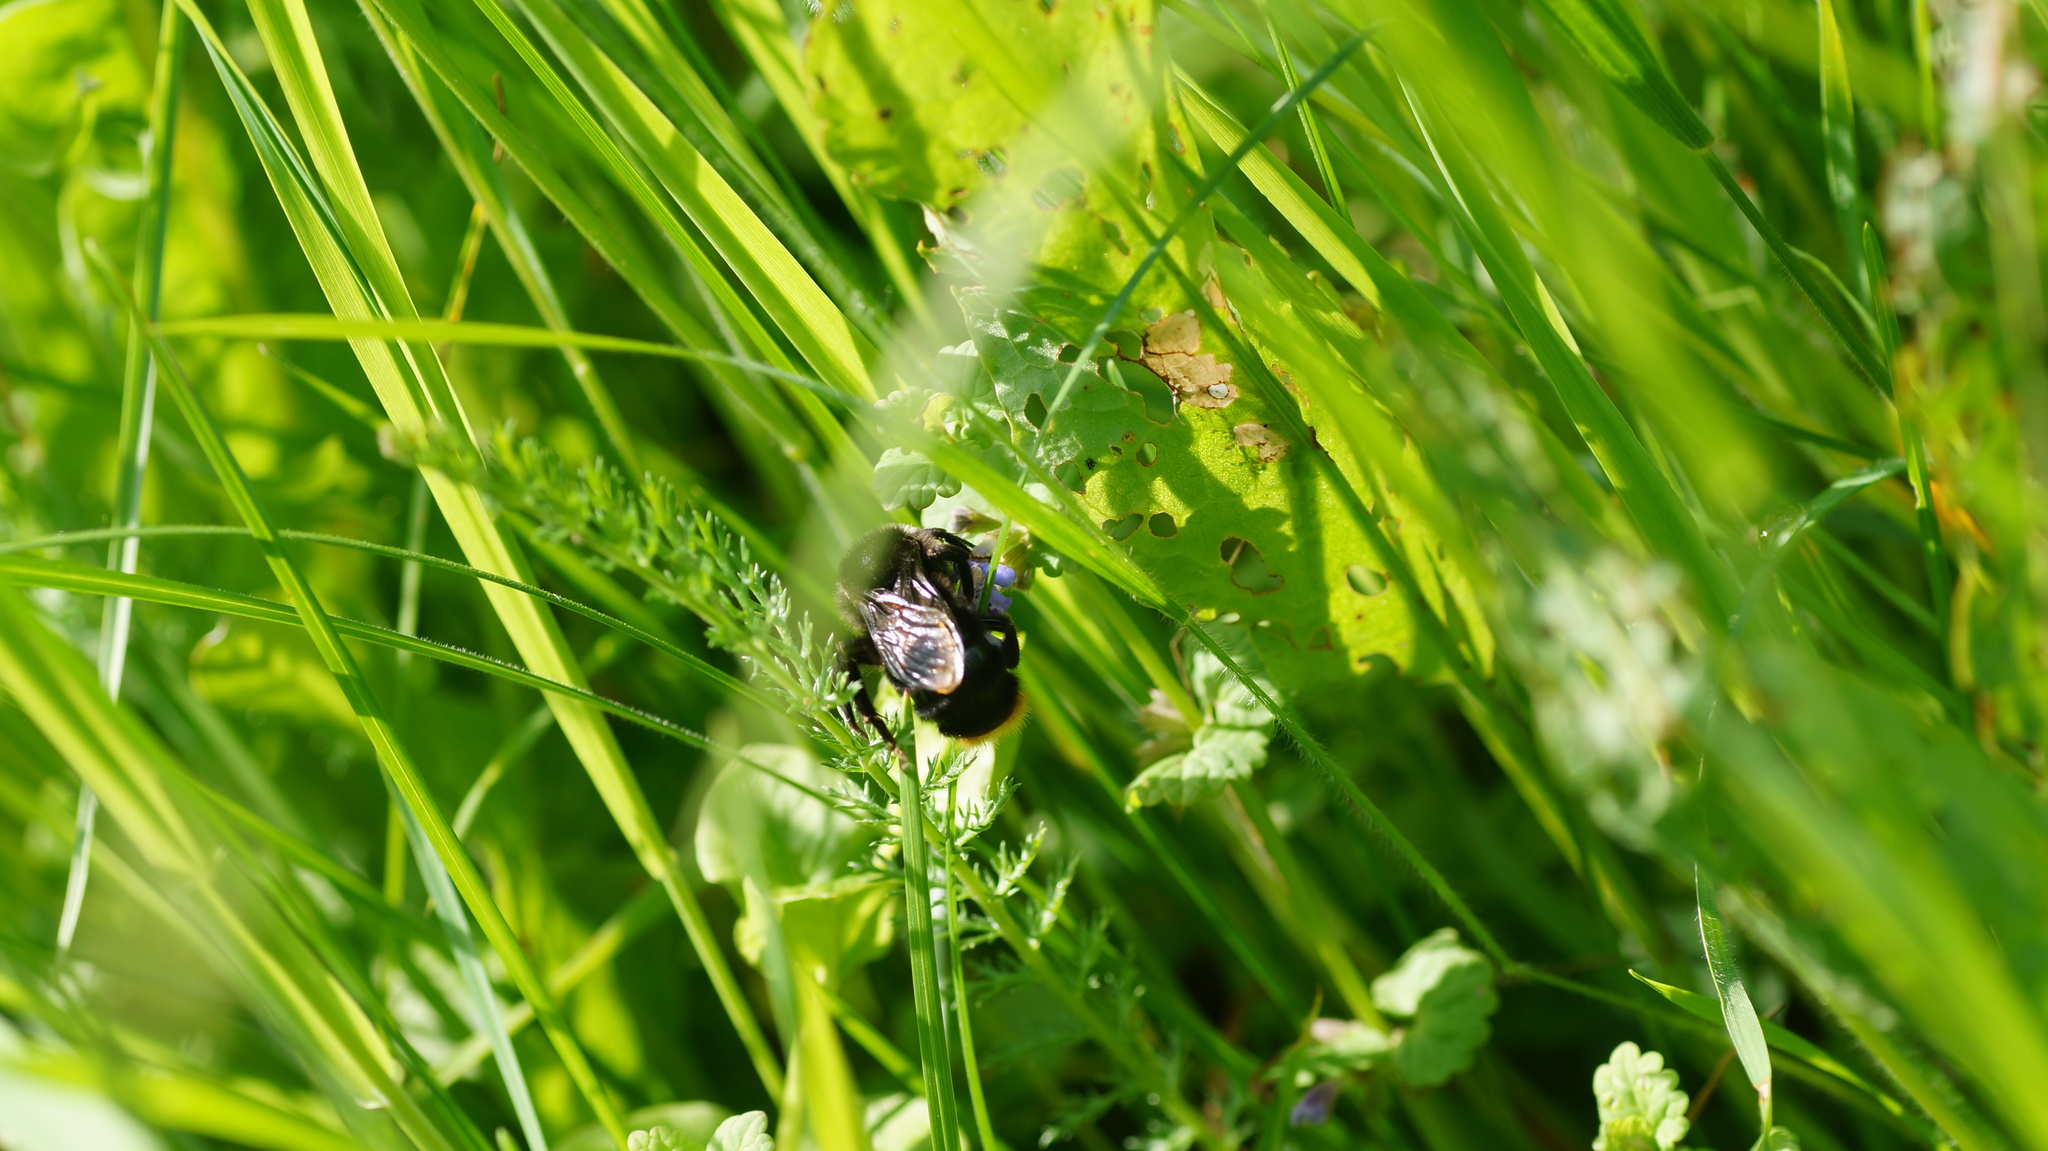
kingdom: Animalia
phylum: Arthropoda
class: Insecta
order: Hymenoptera
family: Apidae
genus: Bombus
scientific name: Bombus rupestris
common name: Hill cuckoo-bee
